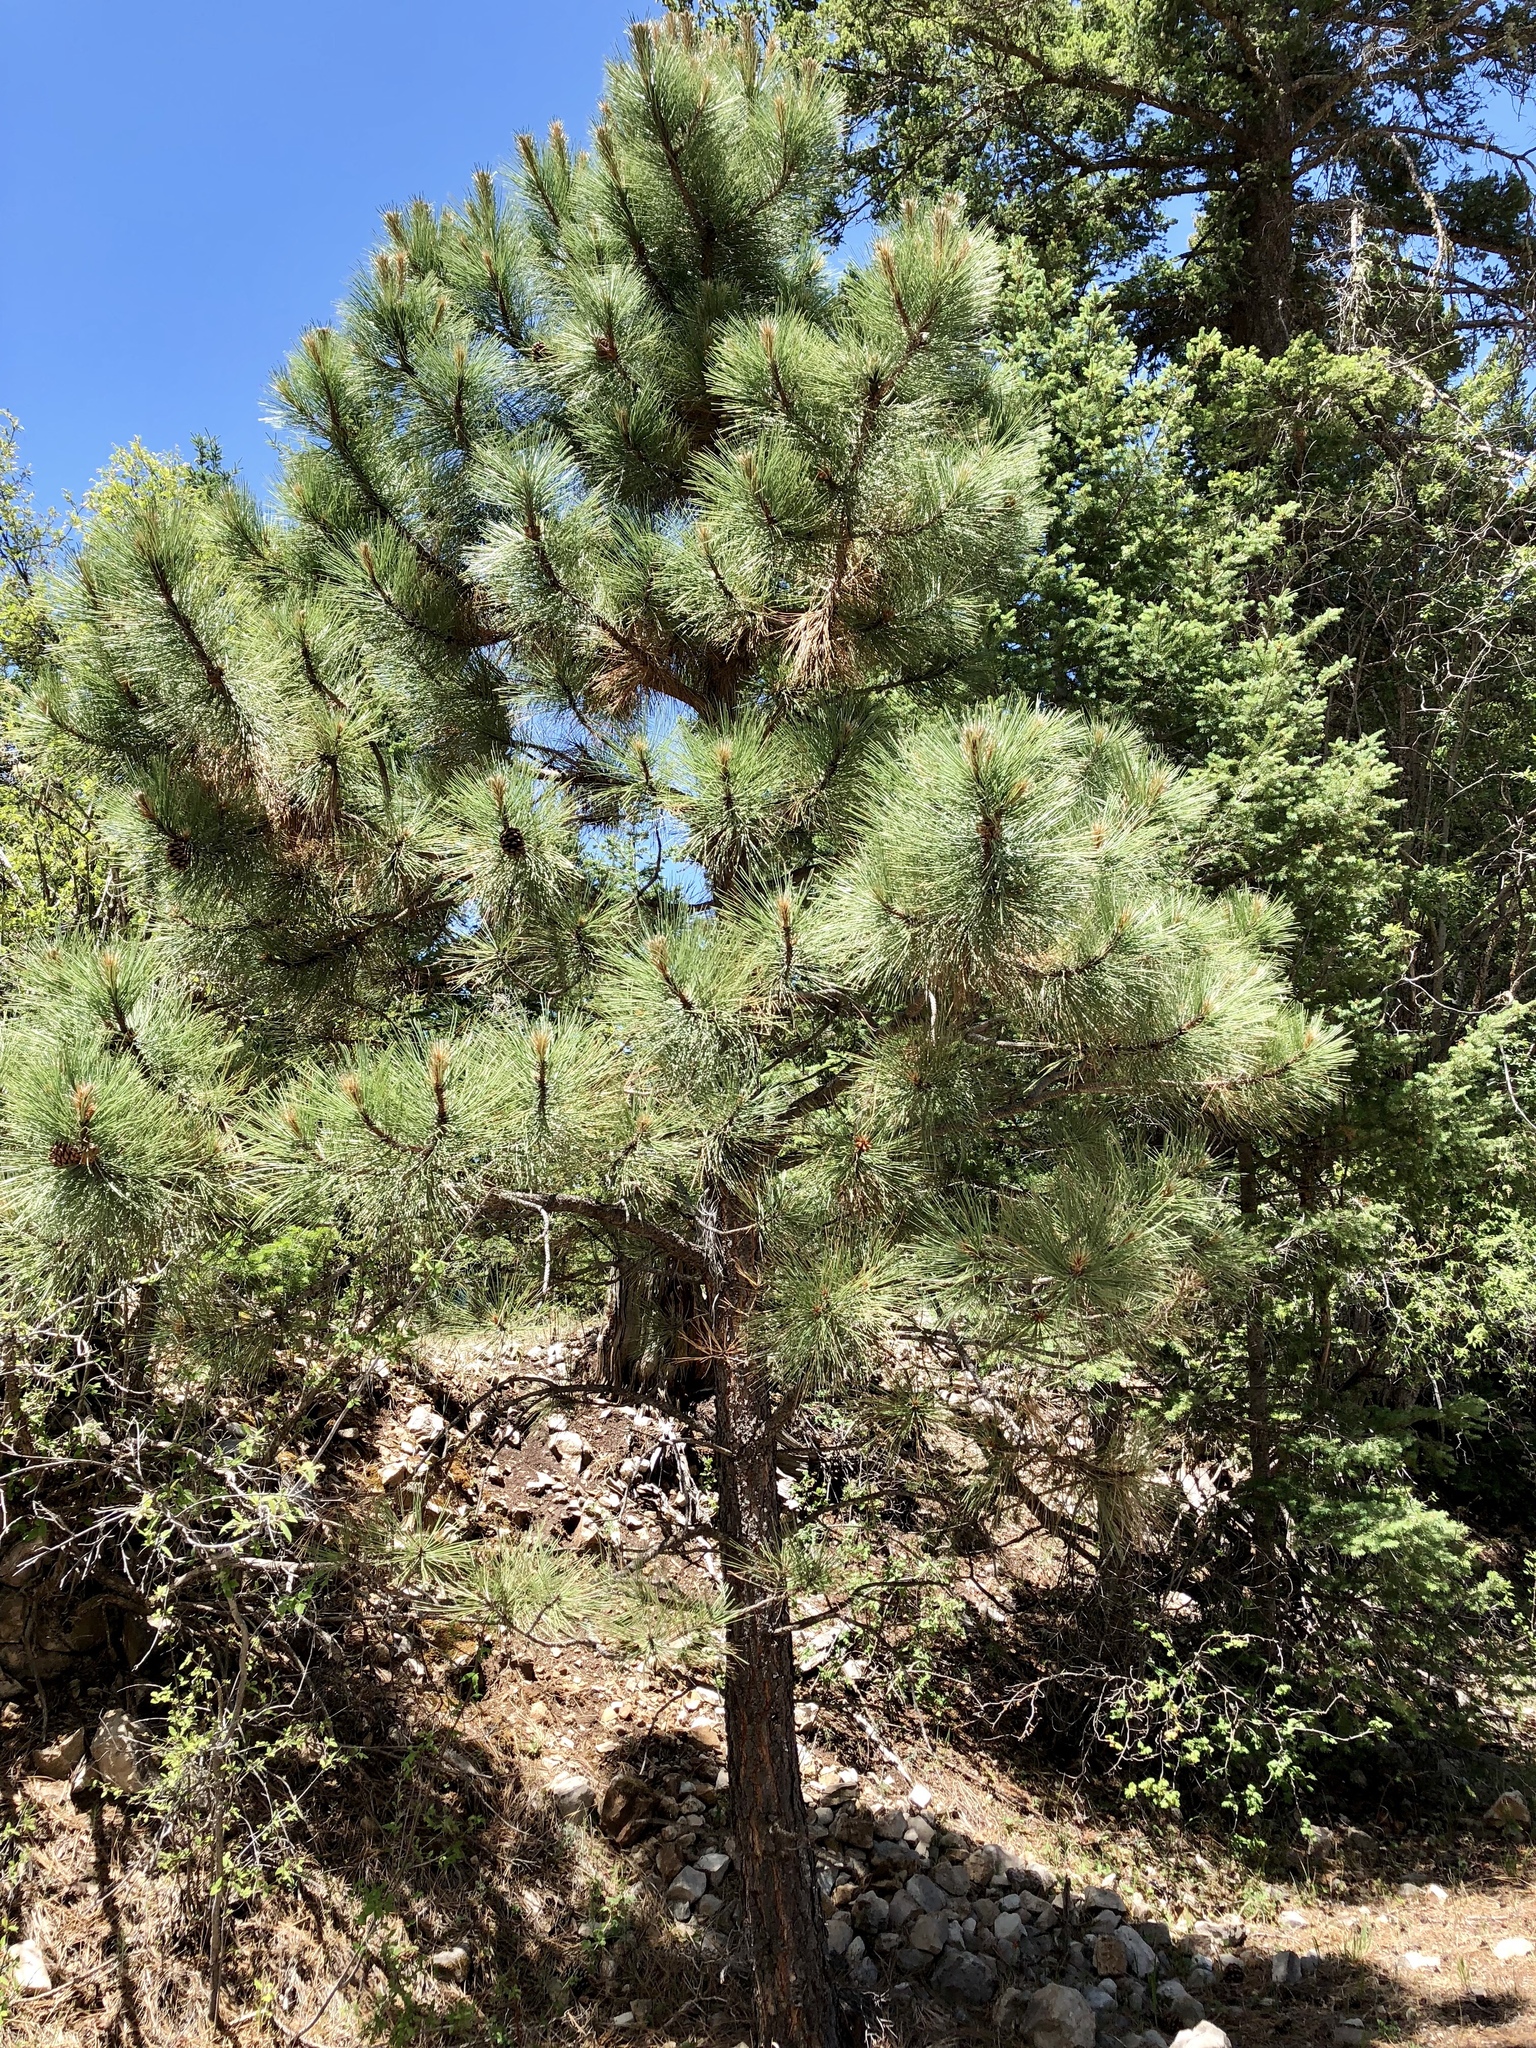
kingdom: Plantae
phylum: Tracheophyta
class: Pinopsida
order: Pinales
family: Pinaceae
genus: Pinus
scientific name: Pinus ponderosa
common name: Western yellow-pine
